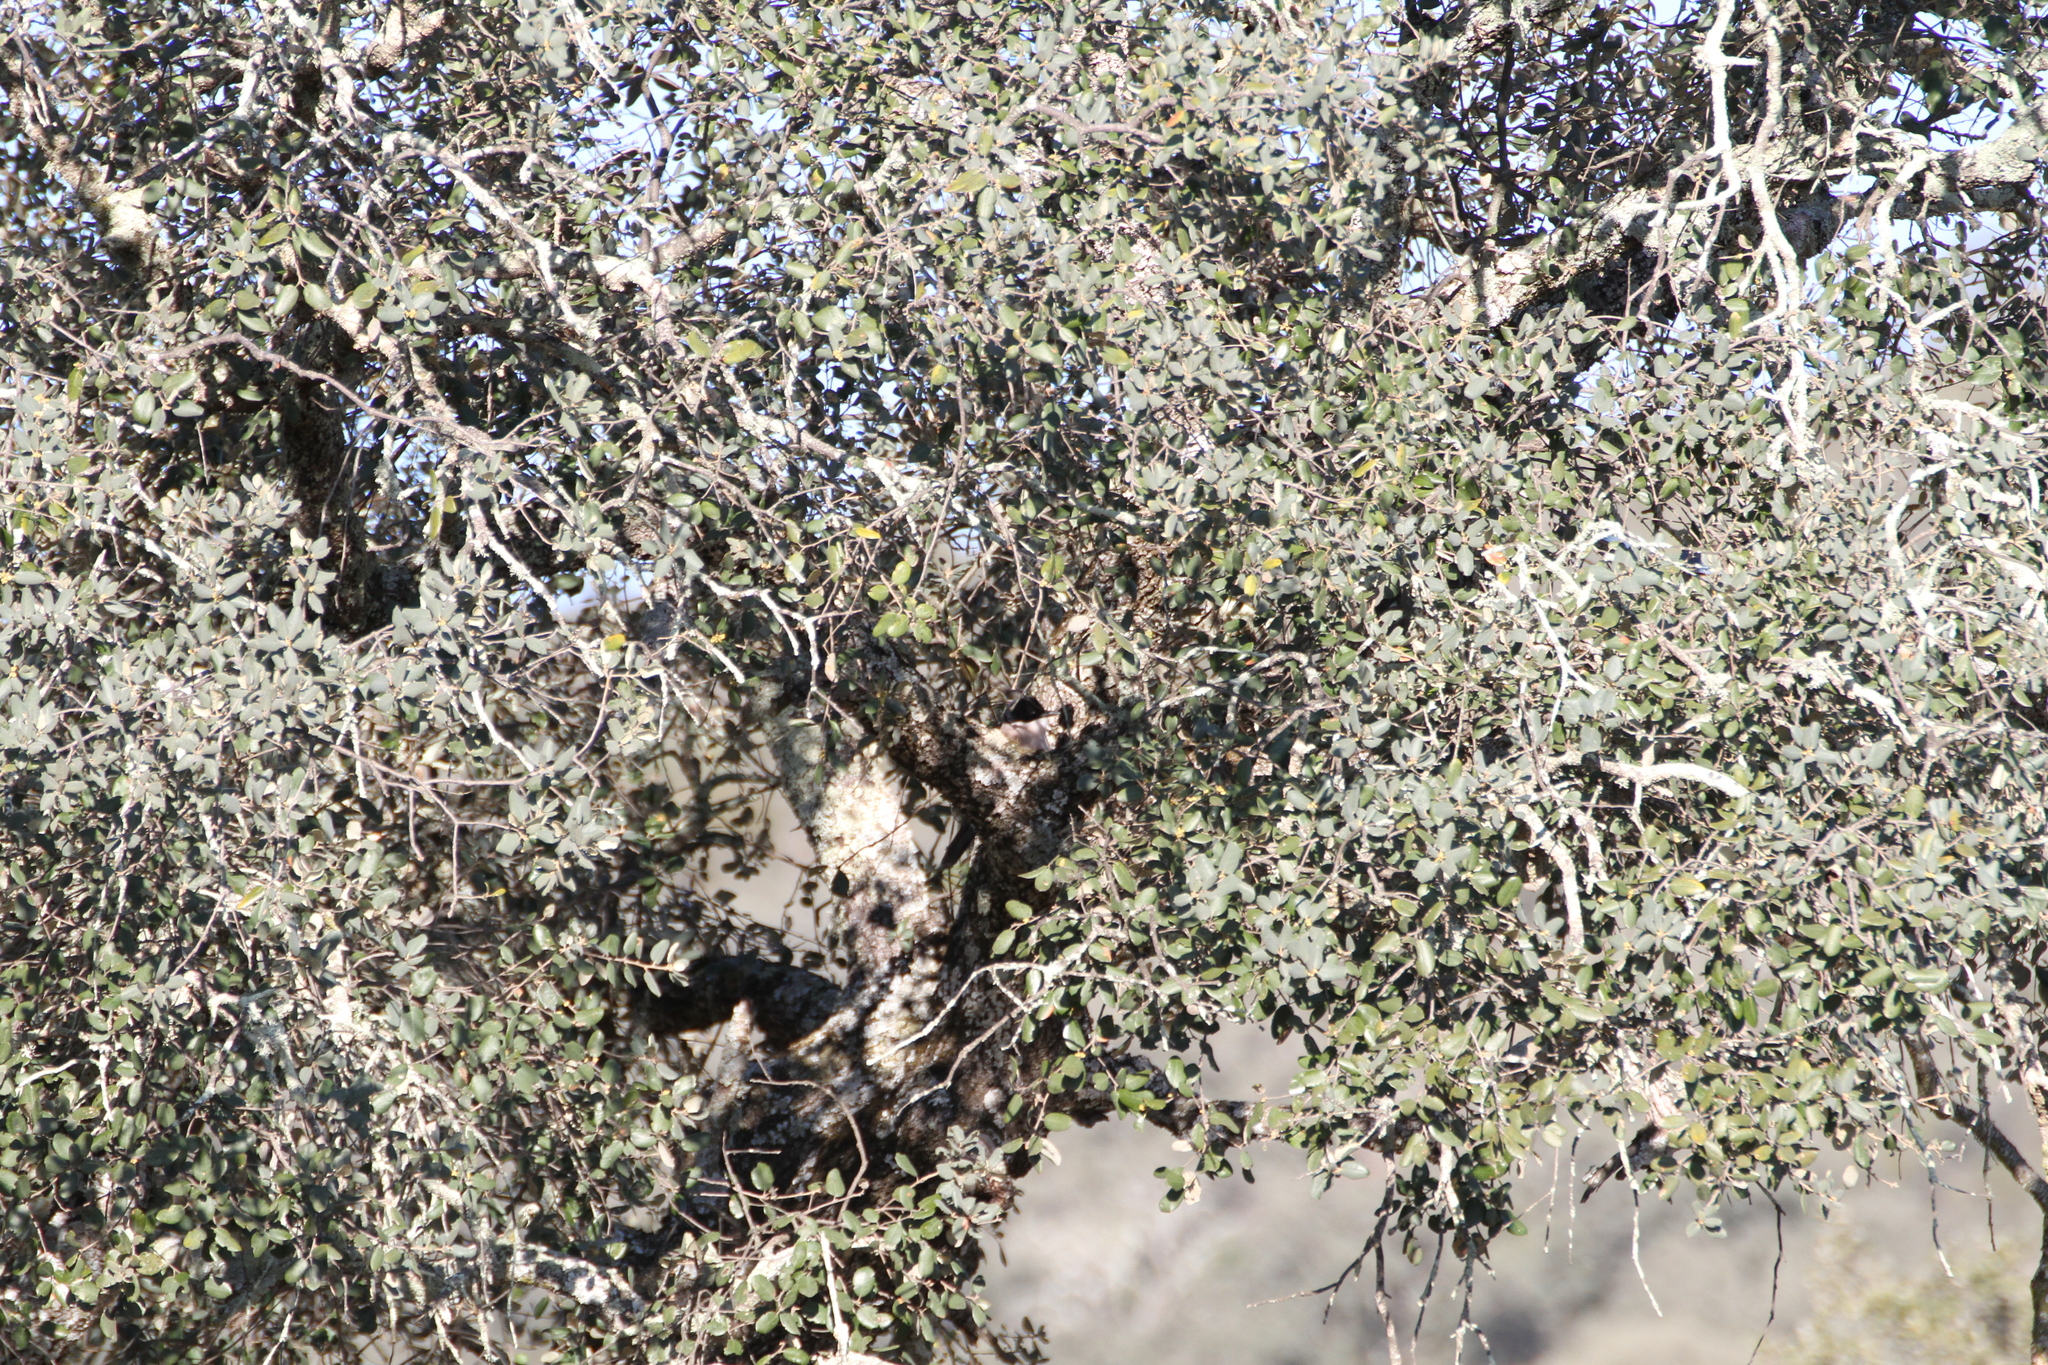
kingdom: Animalia
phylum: Chordata
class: Aves
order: Passeriformes
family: Corvidae
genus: Cyanopica
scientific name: Cyanopica cooki
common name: Iberian magpie
